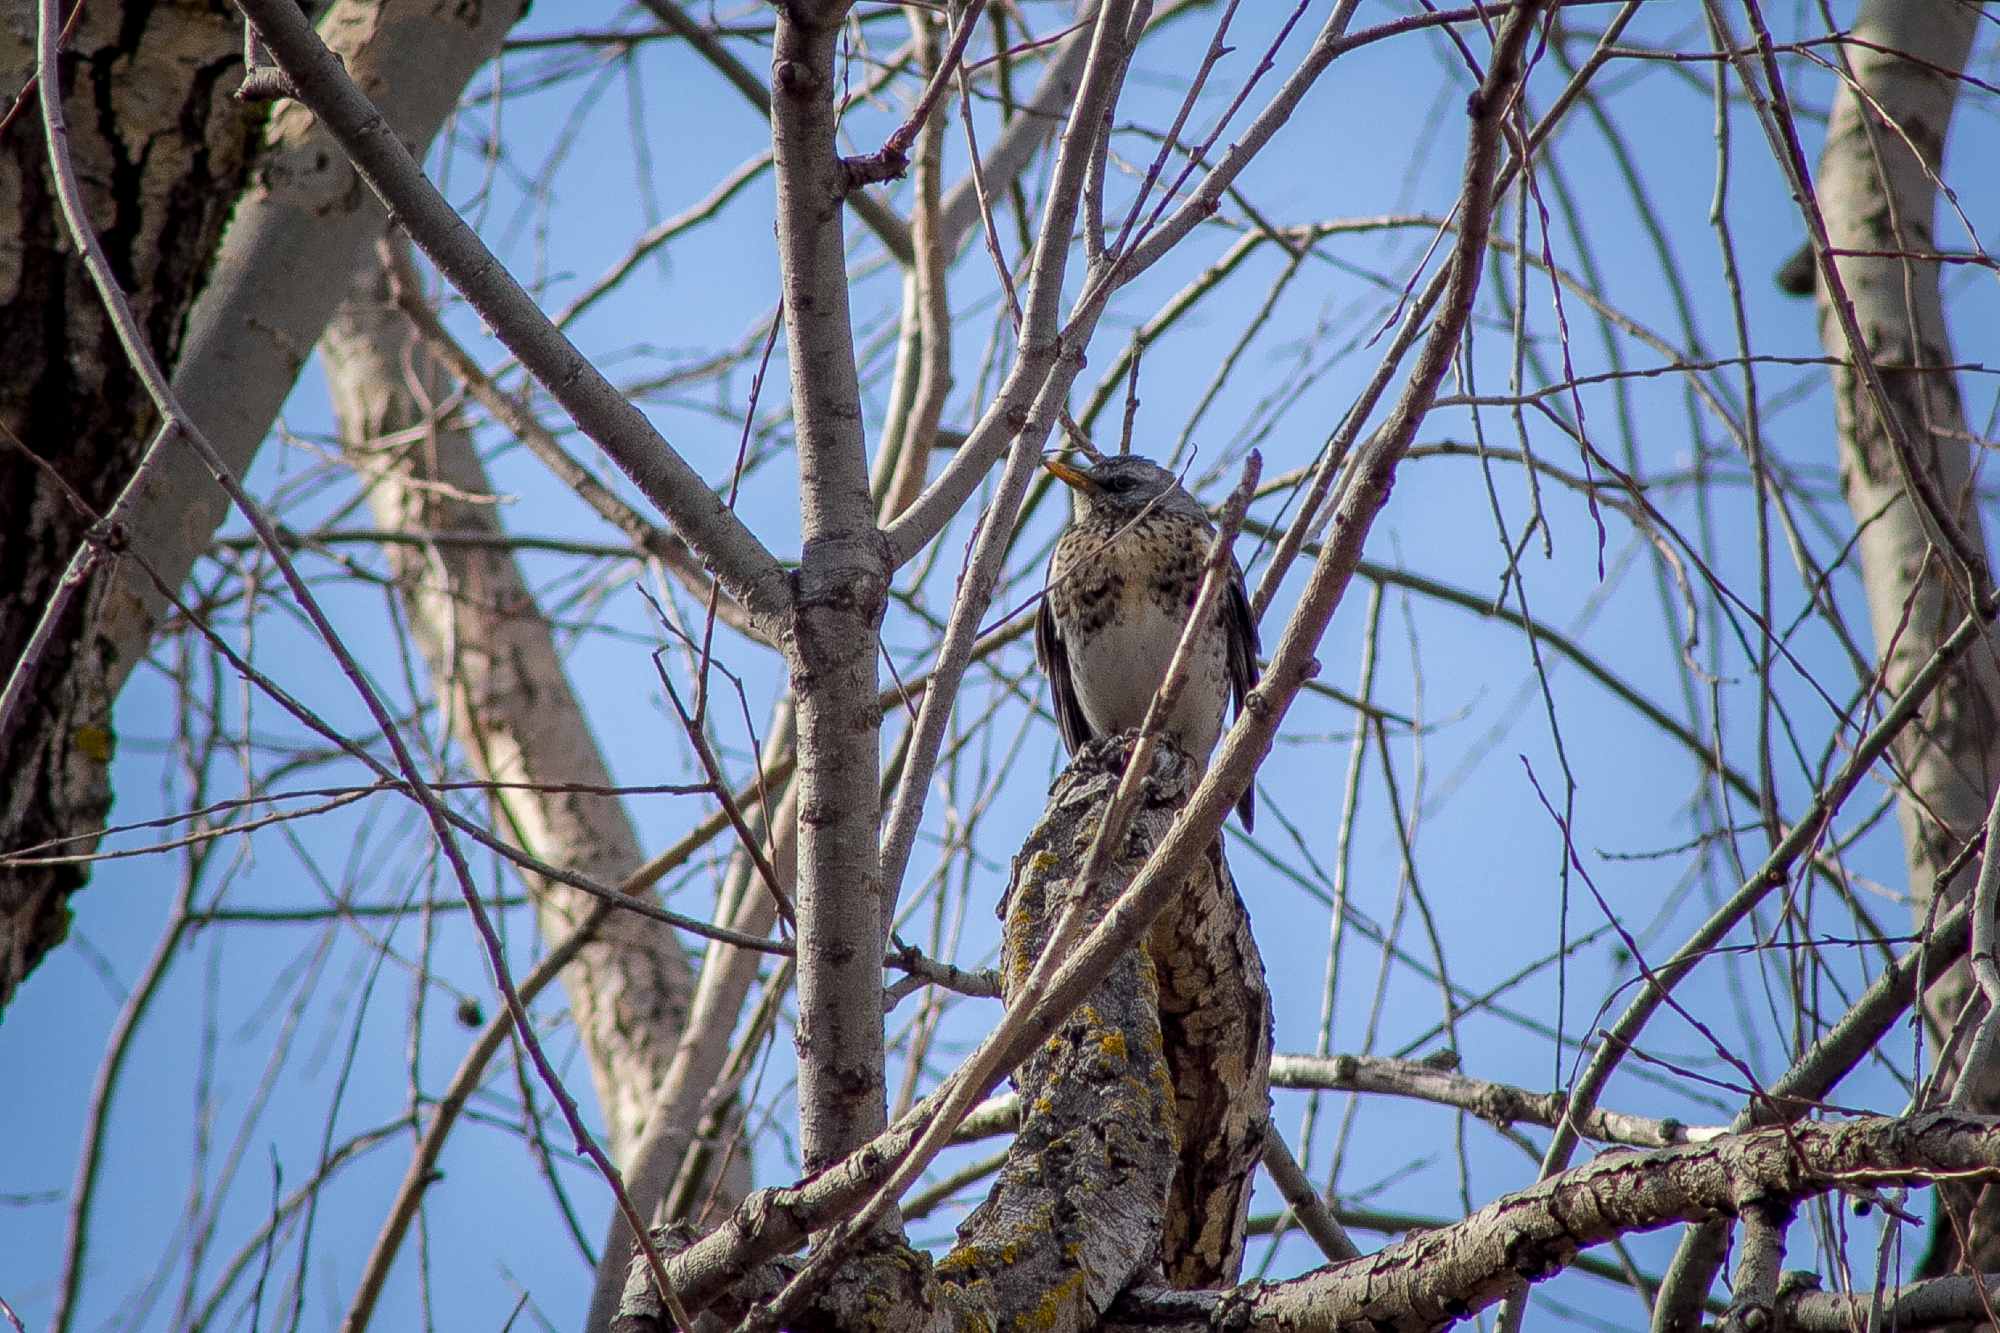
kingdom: Animalia
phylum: Chordata
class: Aves
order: Passeriformes
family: Turdidae
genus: Turdus
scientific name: Turdus pilaris
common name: Fieldfare
